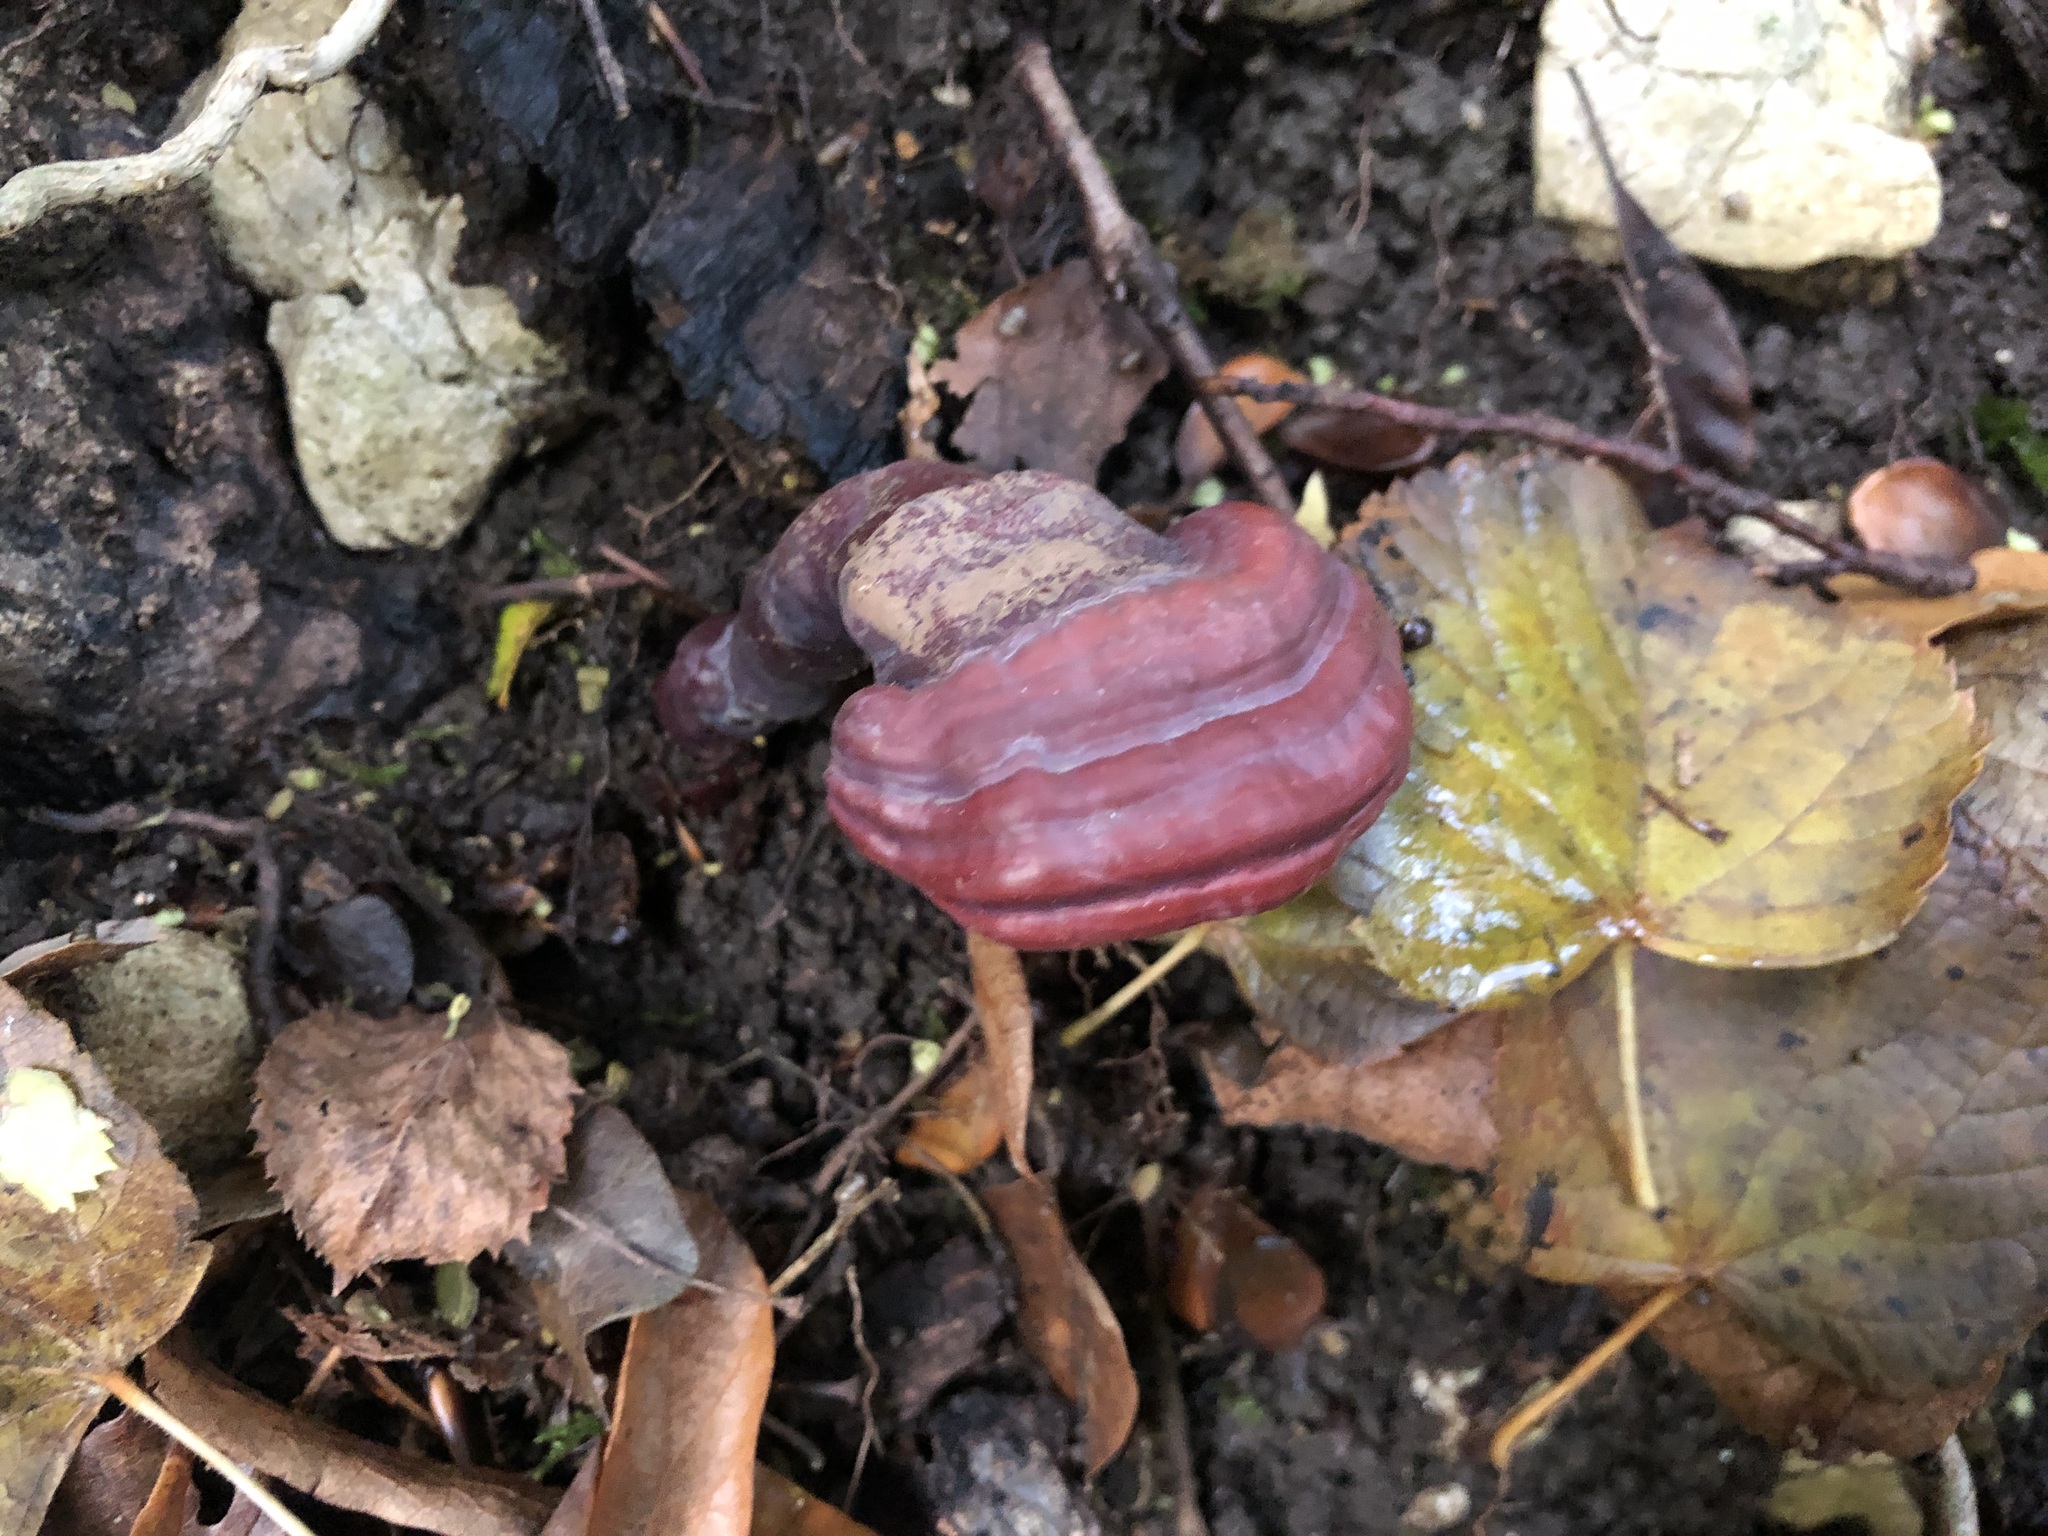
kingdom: Fungi
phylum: Basidiomycota
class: Agaricomycetes
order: Polyporales
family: Polyporaceae
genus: Ganoderma
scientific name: Ganoderma lucidum
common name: Lacquered bracket
